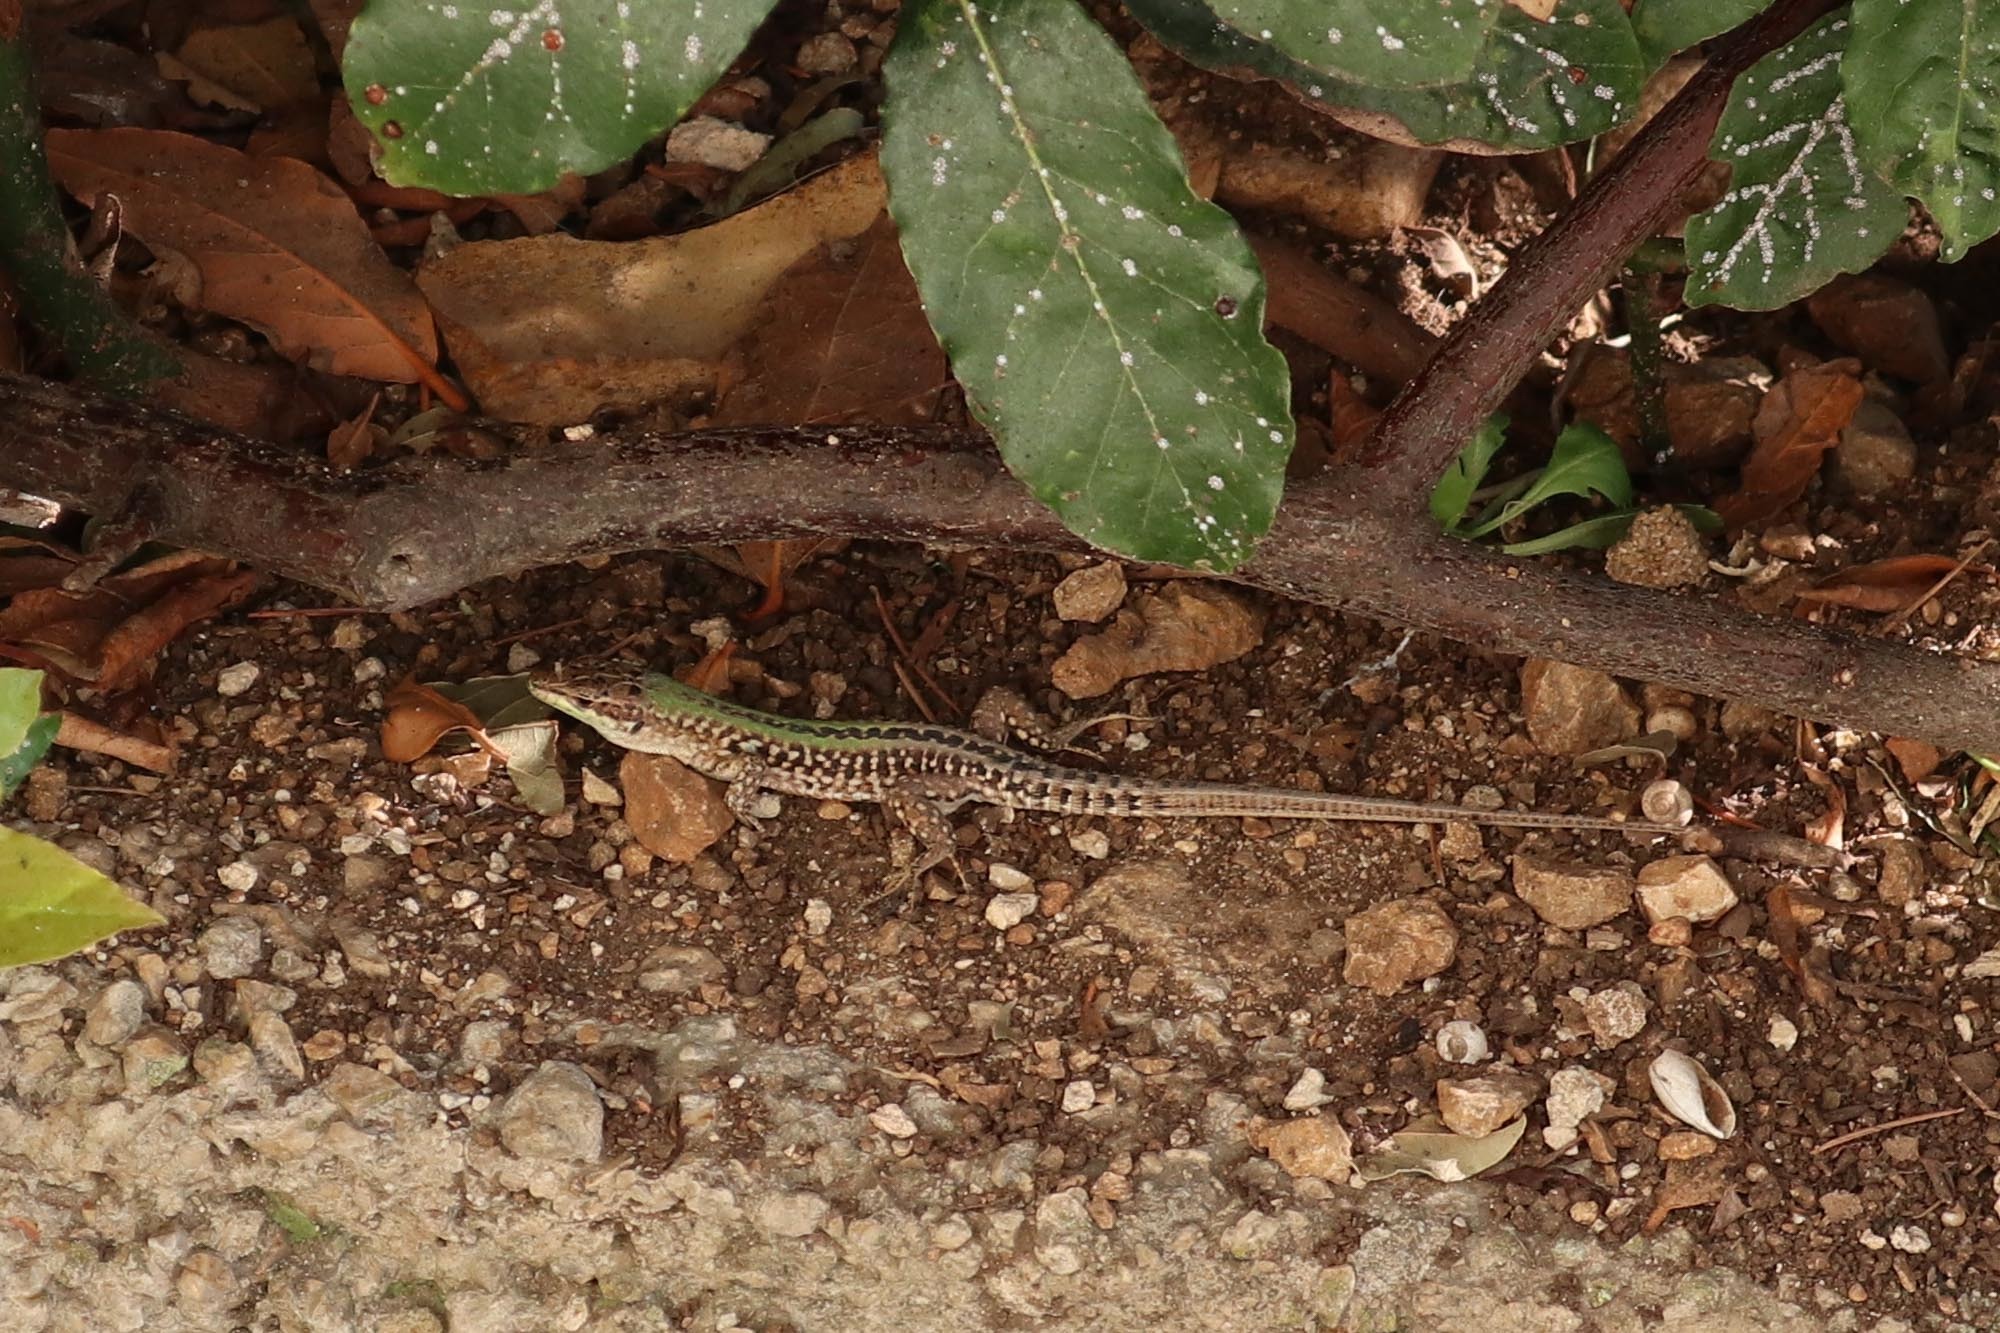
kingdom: Animalia
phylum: Chordata
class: Squamata
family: Lacertidae
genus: Podarcis
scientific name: Podarcis siculus
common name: Italian wall lizard
